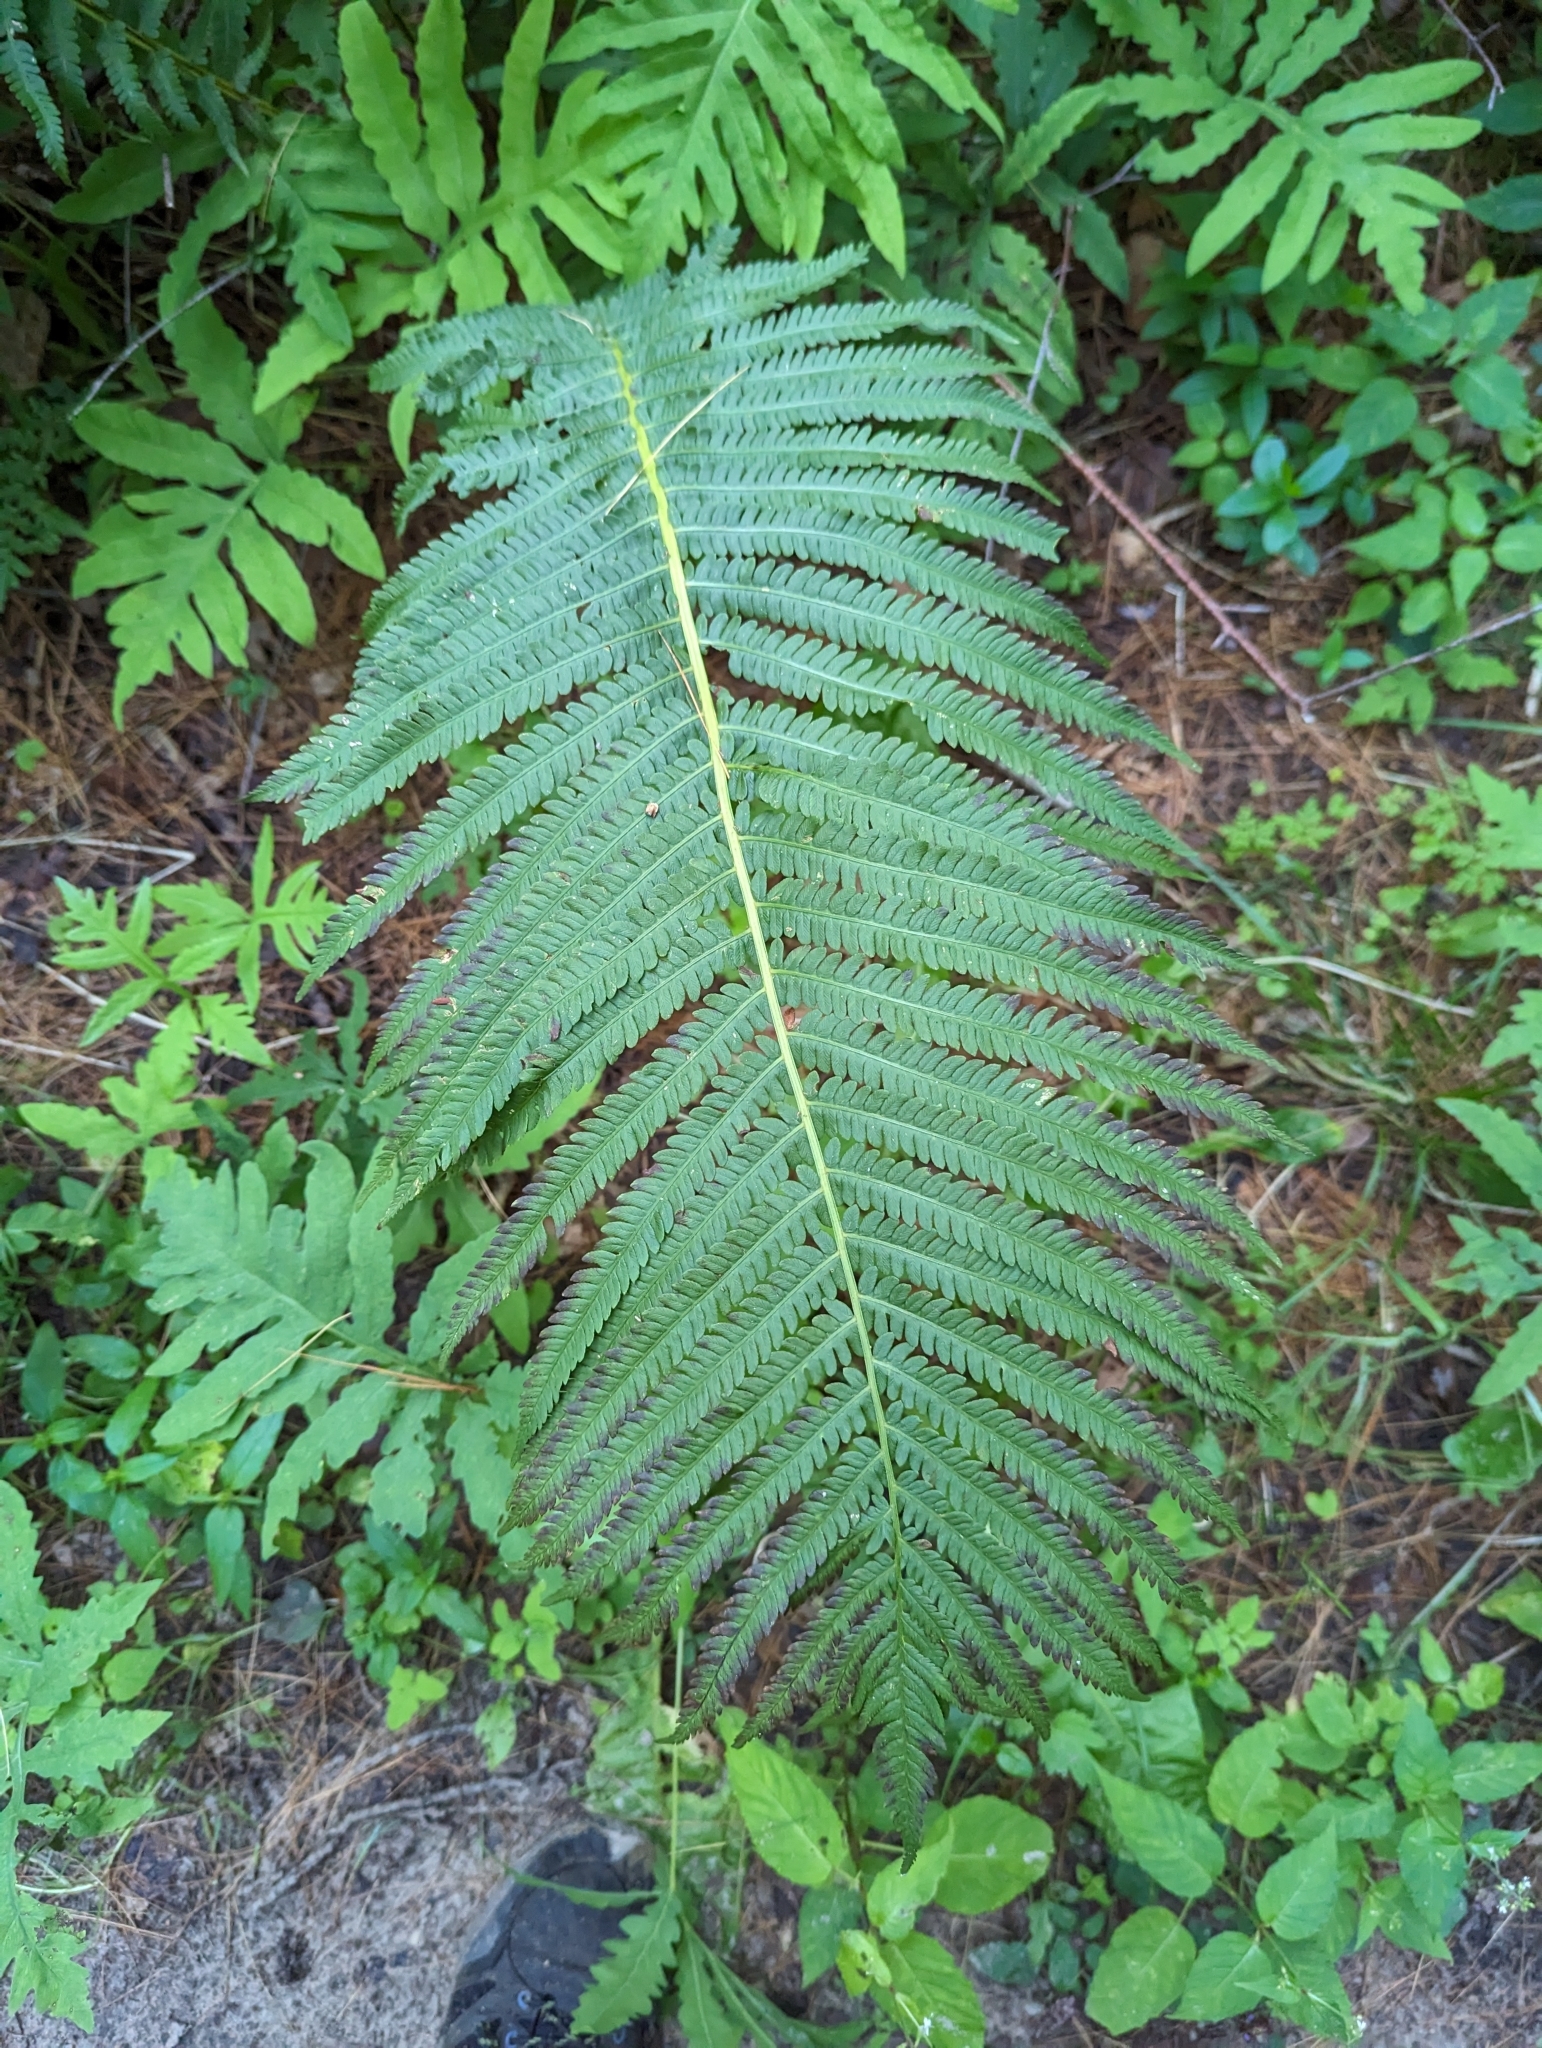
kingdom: Plantae
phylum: Tracheophyta
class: Polypodiopsida
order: Polypodiales
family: Onocleaceae
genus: Matteuccia
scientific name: Matteuccia struthiopteris
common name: Ostrich fern
